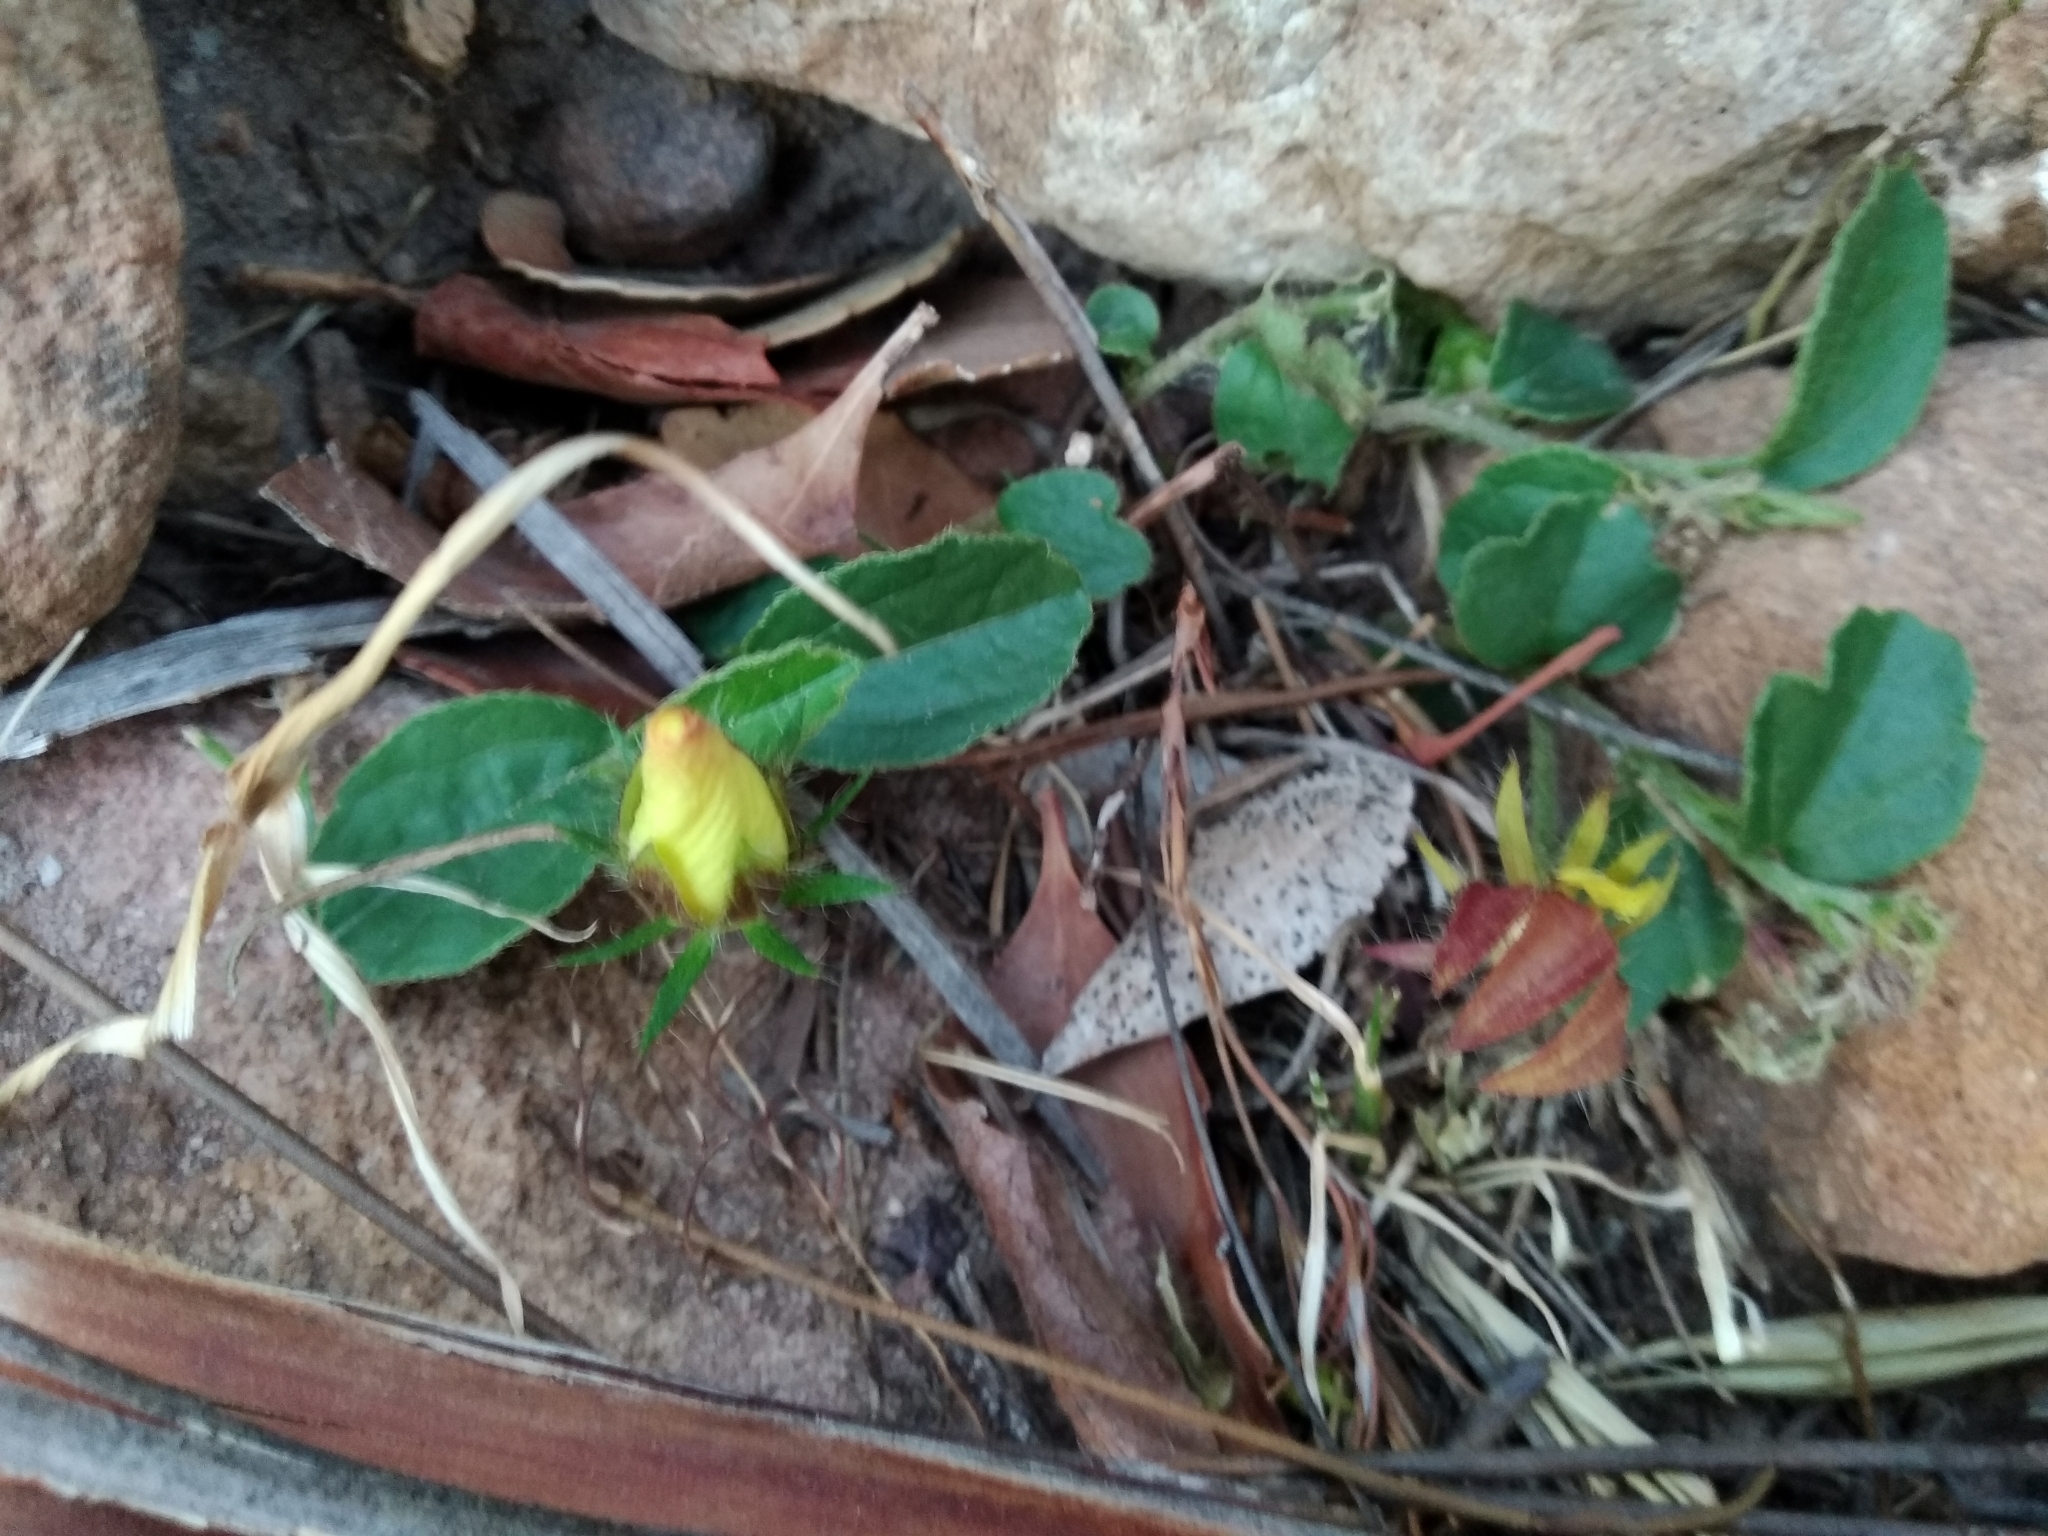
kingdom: Plantae
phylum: Tracheophyta
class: Magnoliopsida
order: Malvales
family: Malvaceae
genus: Hibiscus
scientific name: Hibiscus aethiopicus
